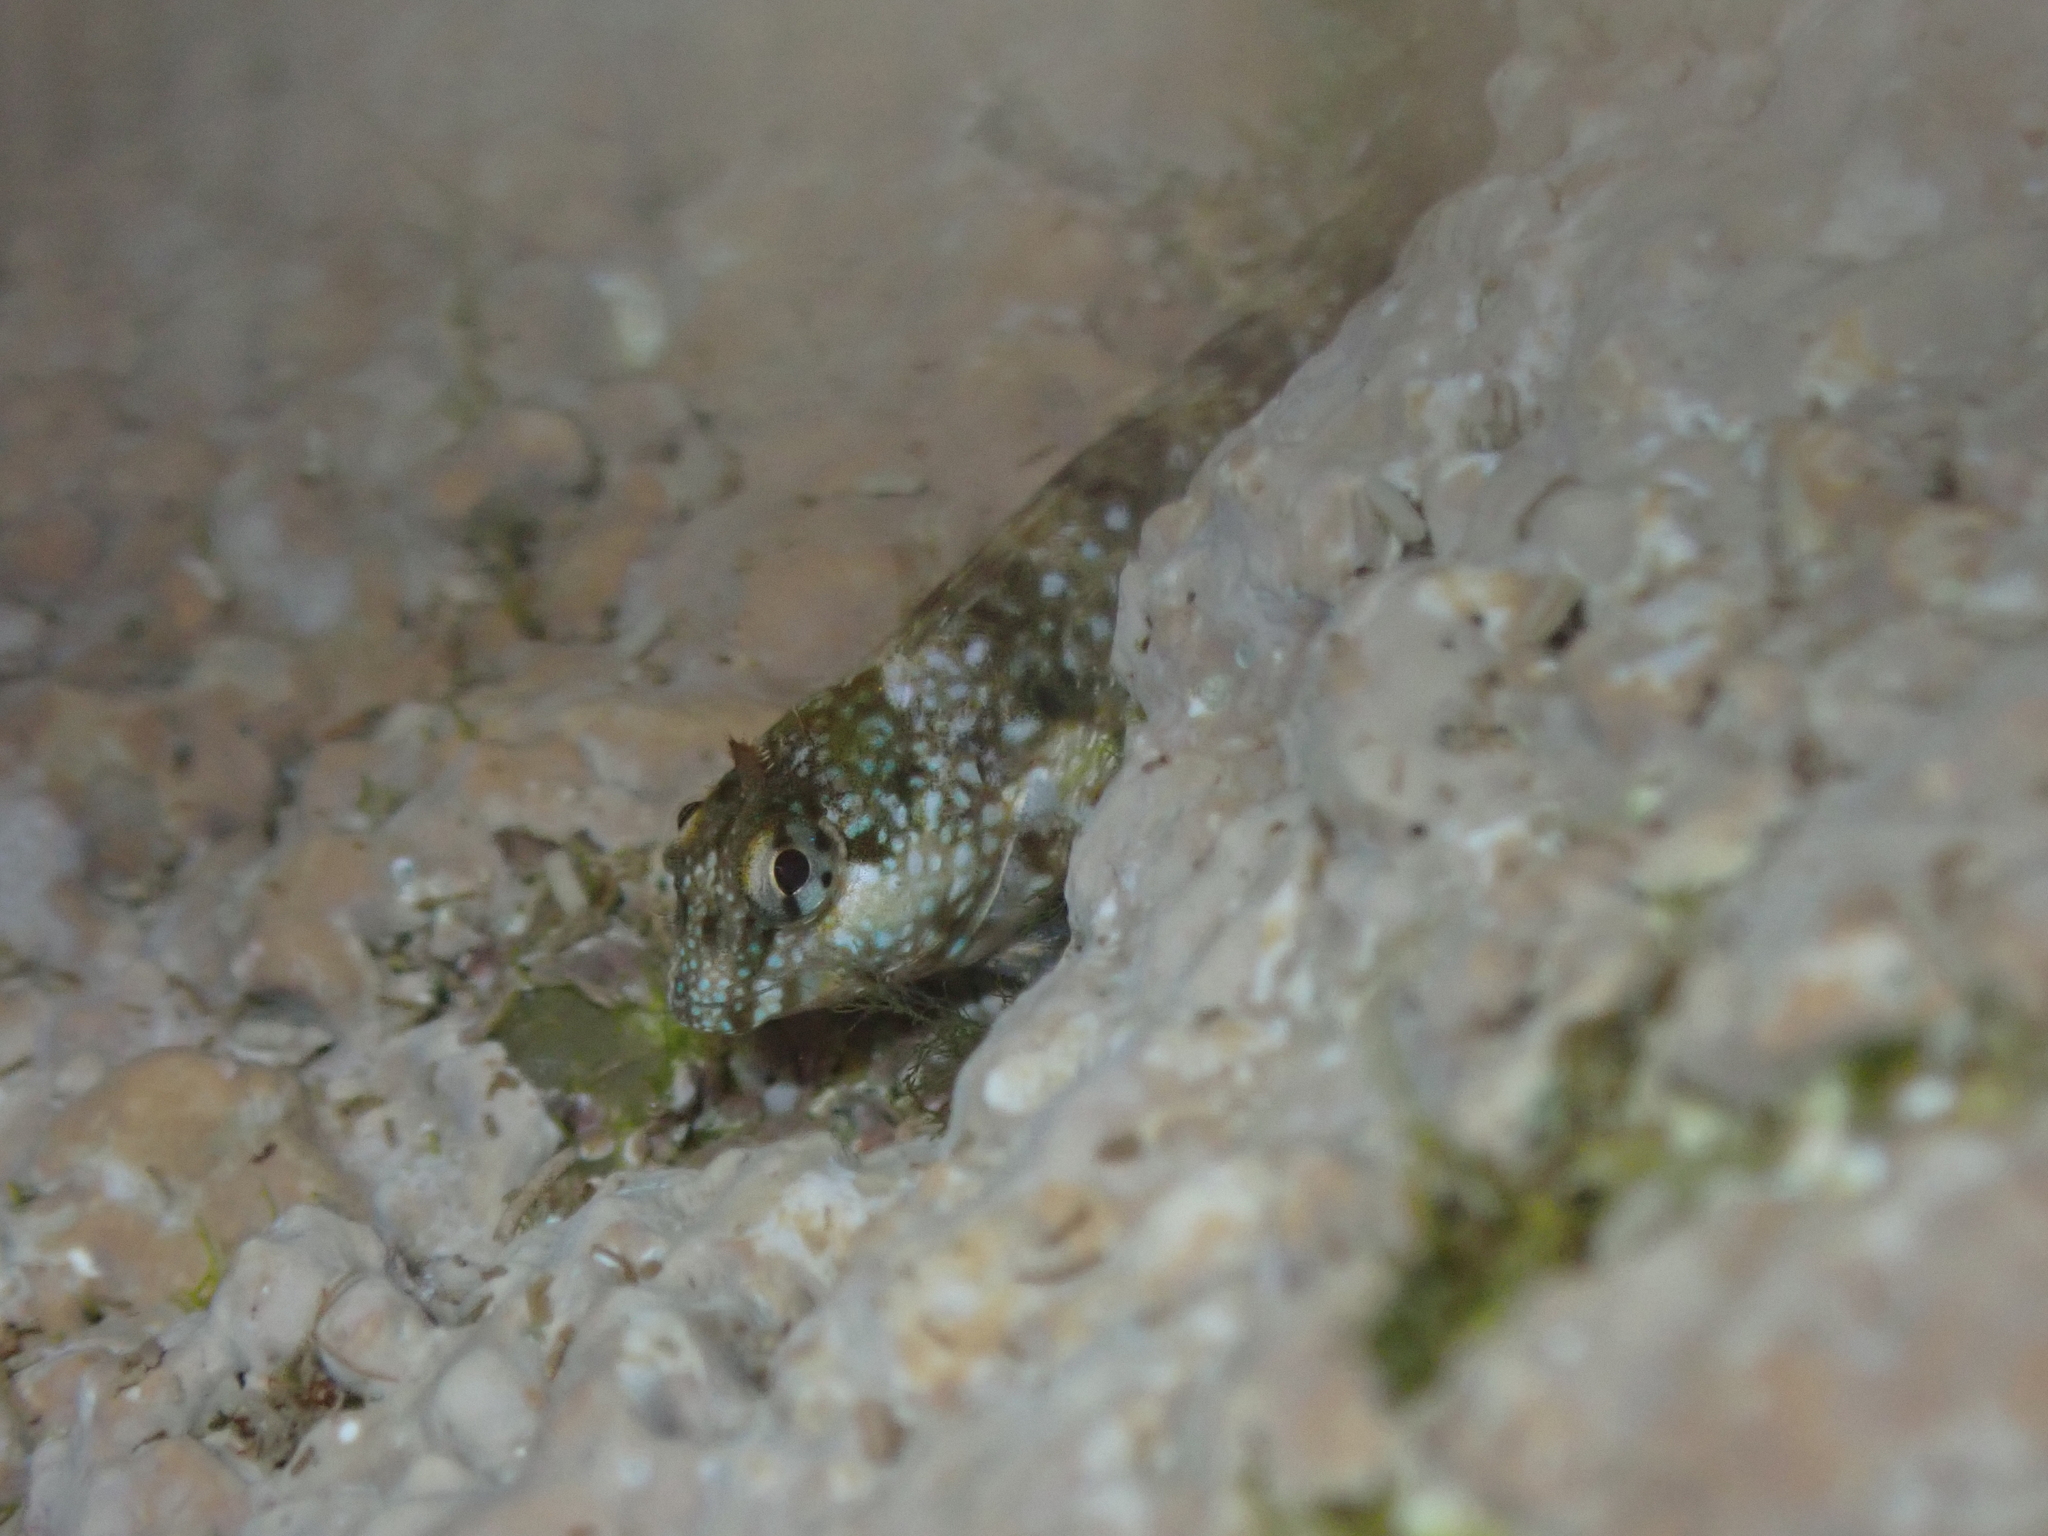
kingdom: Animalia
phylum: Chordata
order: Perciformes
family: Blenniidae
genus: Coryphoblennius
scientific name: Coryphoblennius galerita
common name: Montagu's blenny
